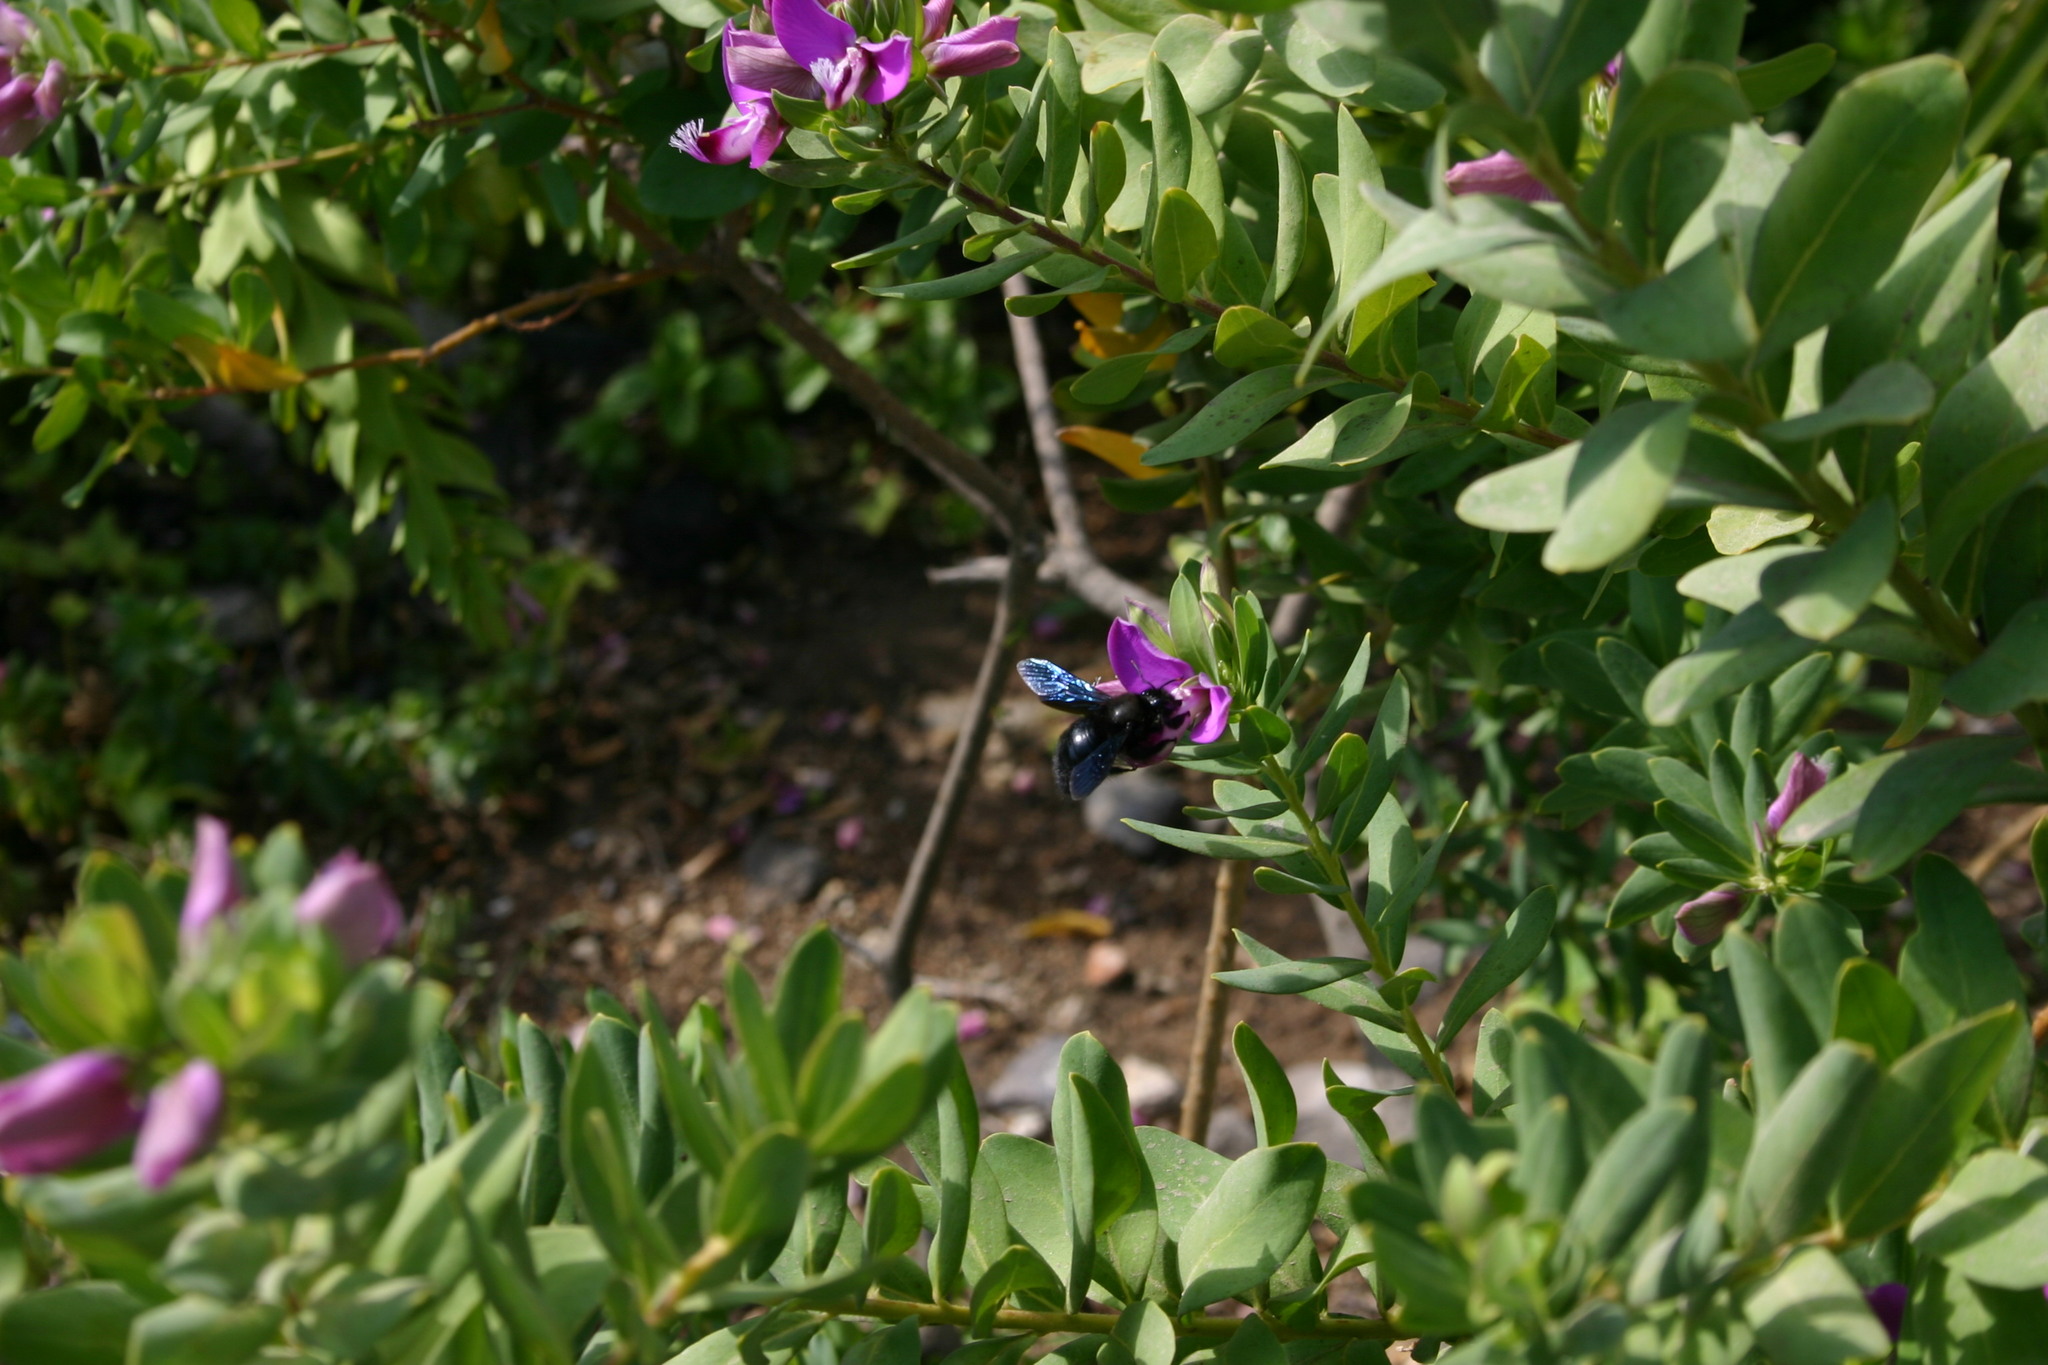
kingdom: Animalia
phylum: Arthropoda
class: Insecta
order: Hymenoptera
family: Apidae
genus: Xylocopa
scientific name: Xylocopa violacea
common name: Violet carpenter bee
